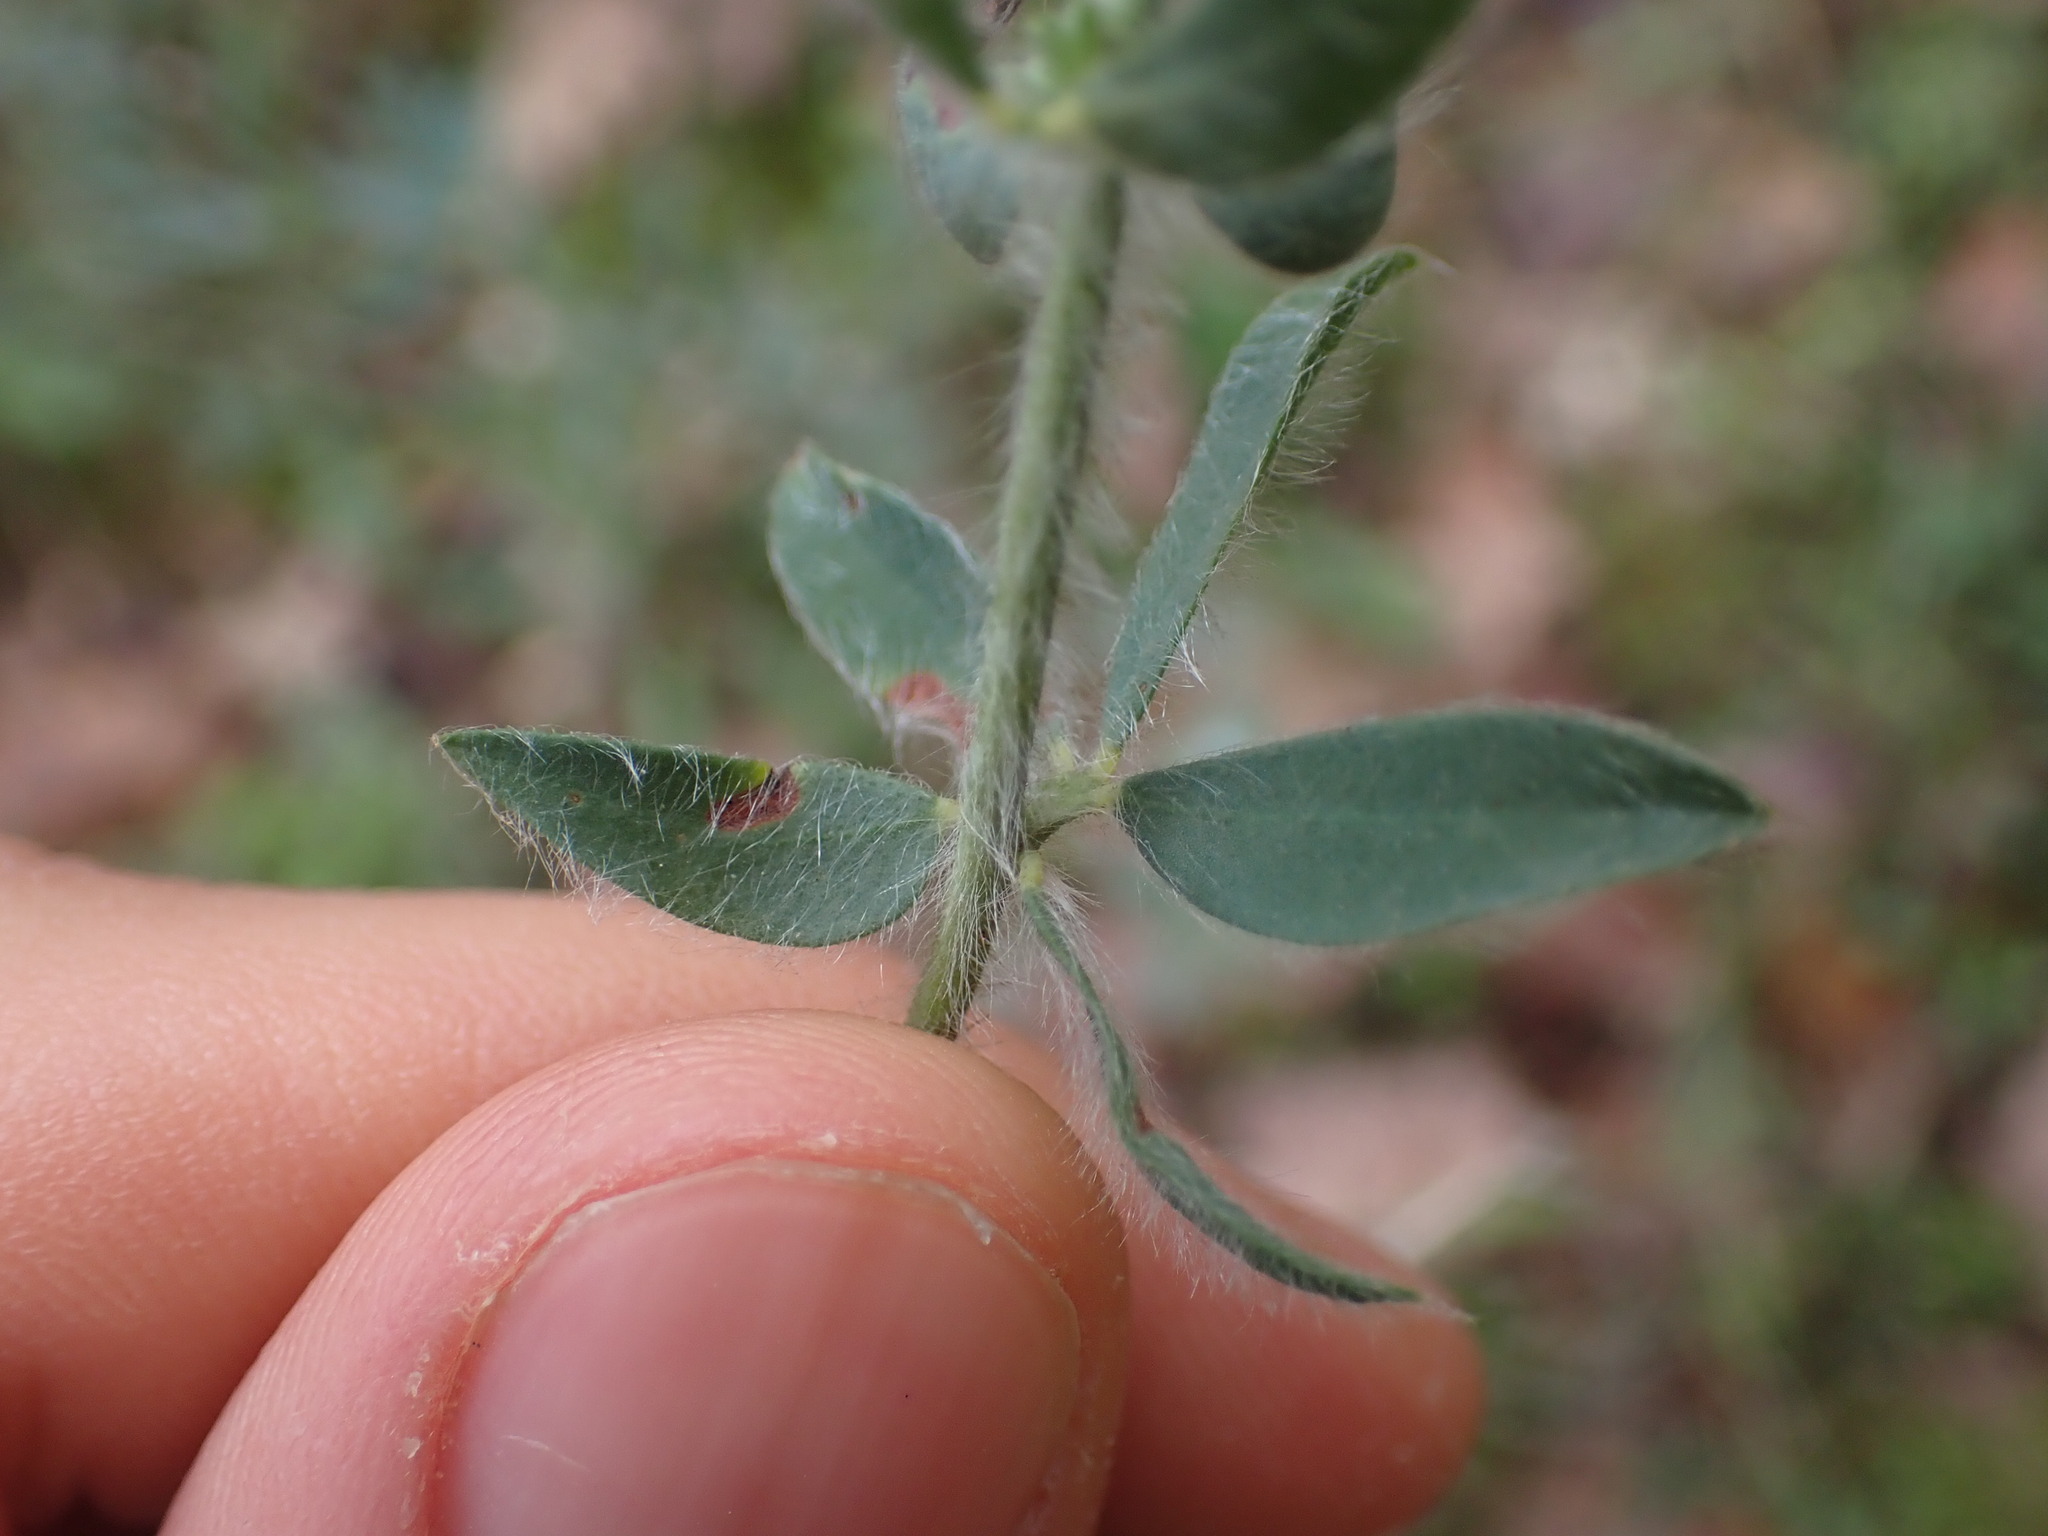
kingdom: Plantae
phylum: Tracheophyta
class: Magnoliopsida
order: Fabales
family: Fabaceae
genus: Lotus
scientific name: Lotus hirsutus
